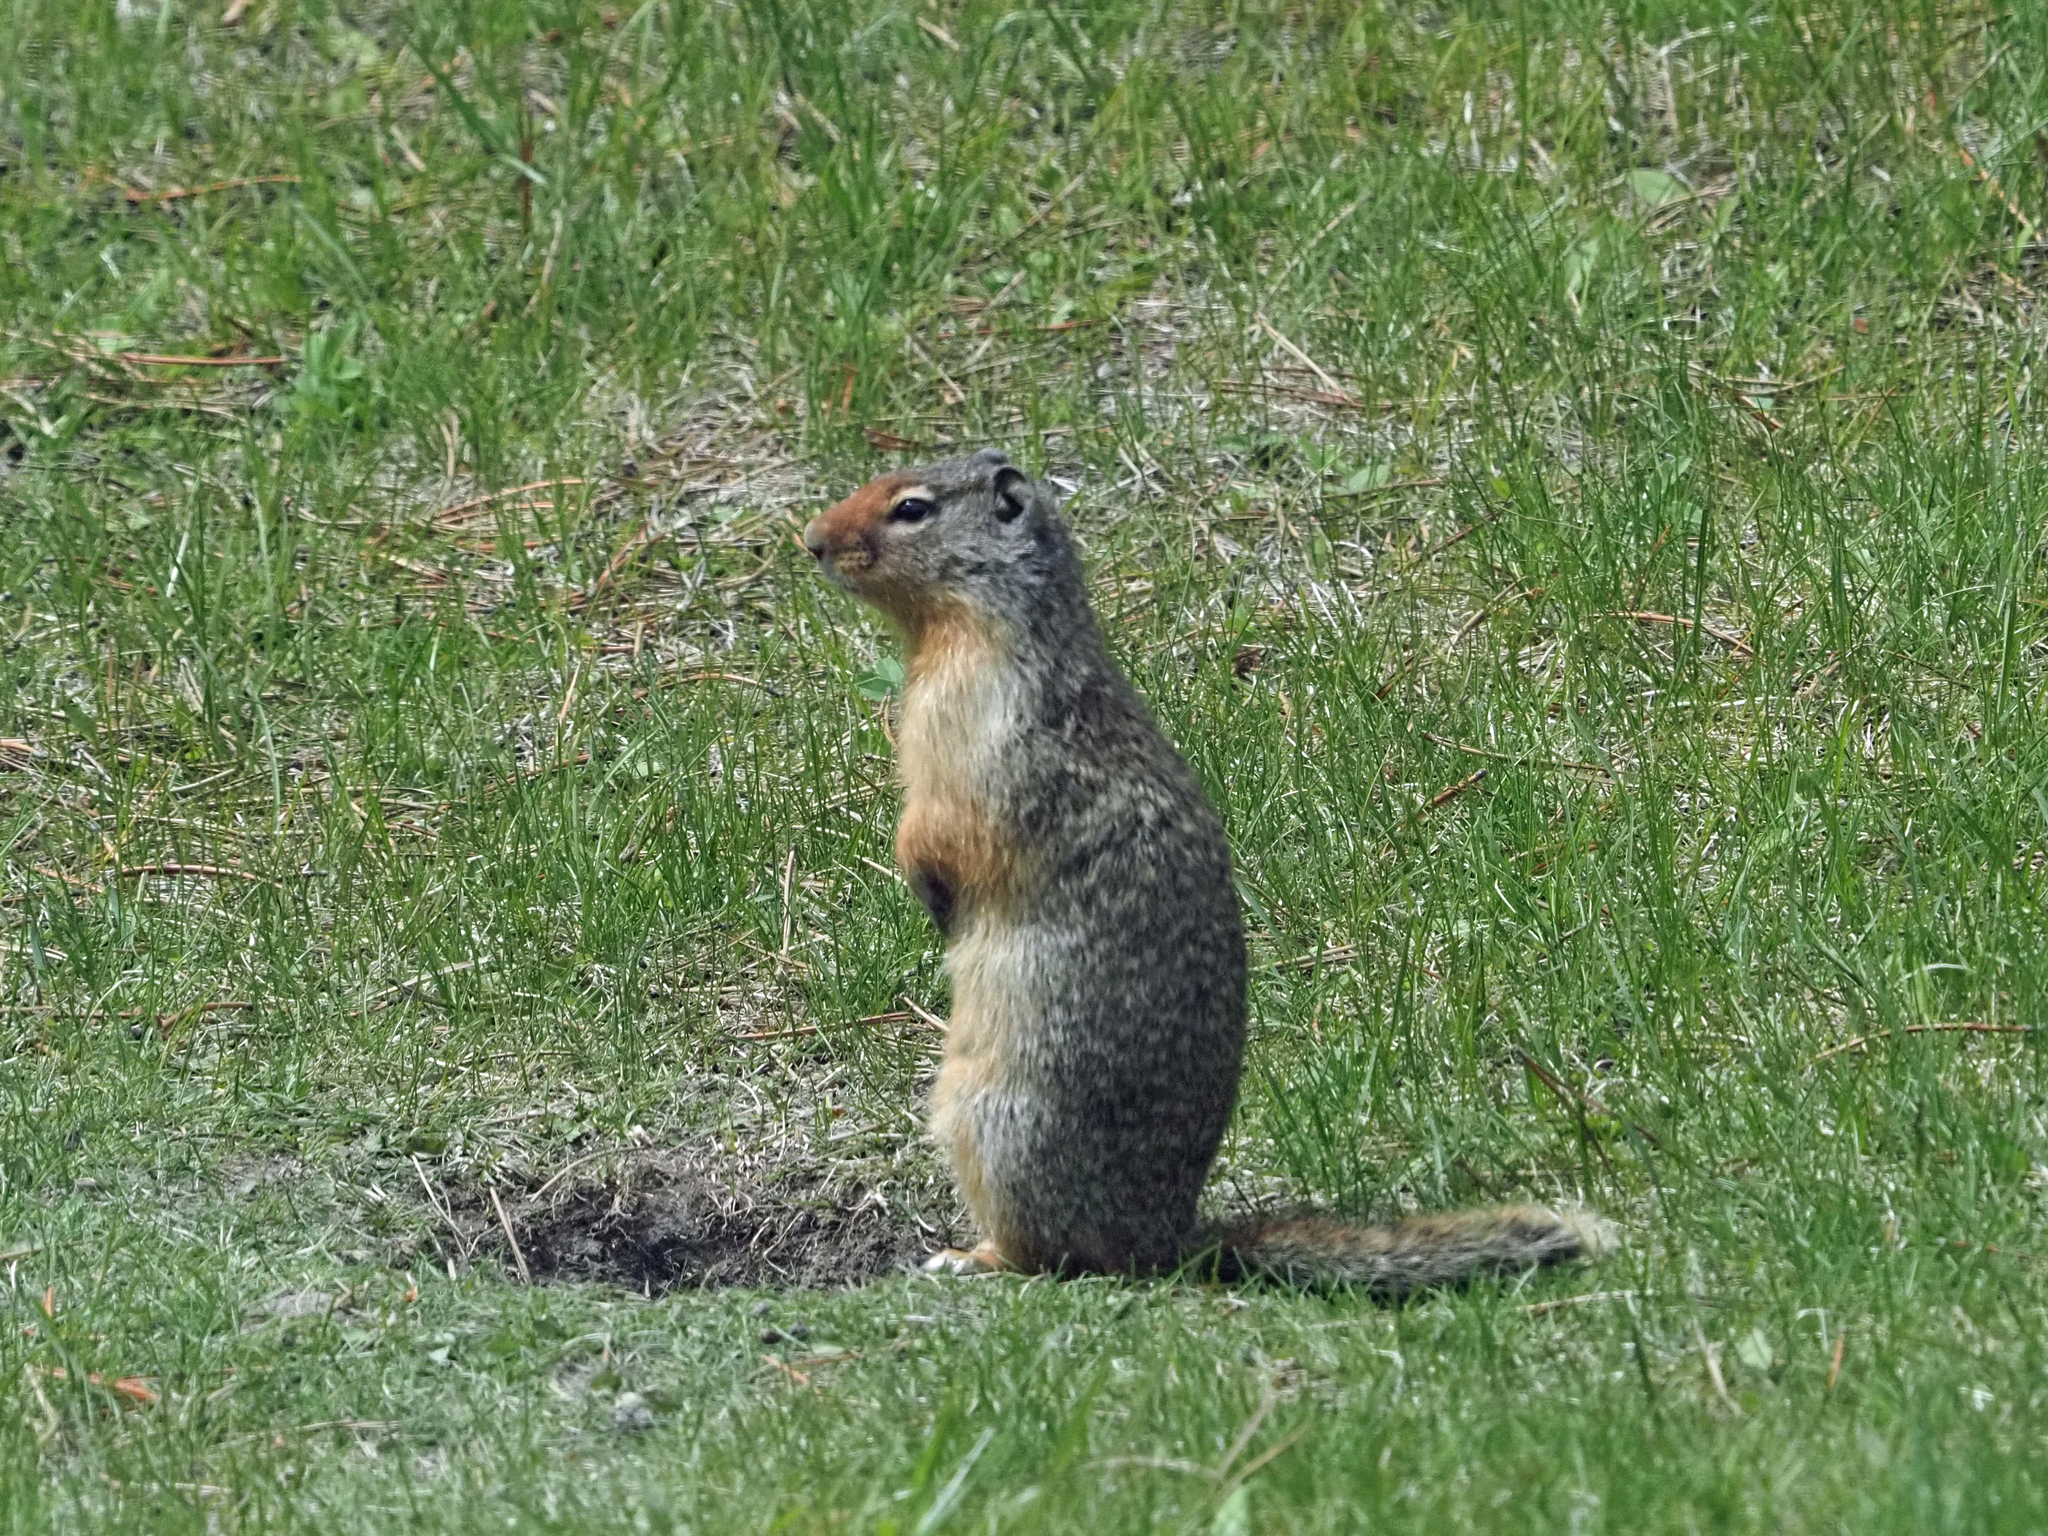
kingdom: Animalia
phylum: Chordata
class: Mammalia
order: Rodentia
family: Sciuridae
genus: Urocitellus
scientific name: Urocitellus columbianus
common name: Columbian ground squirrel
